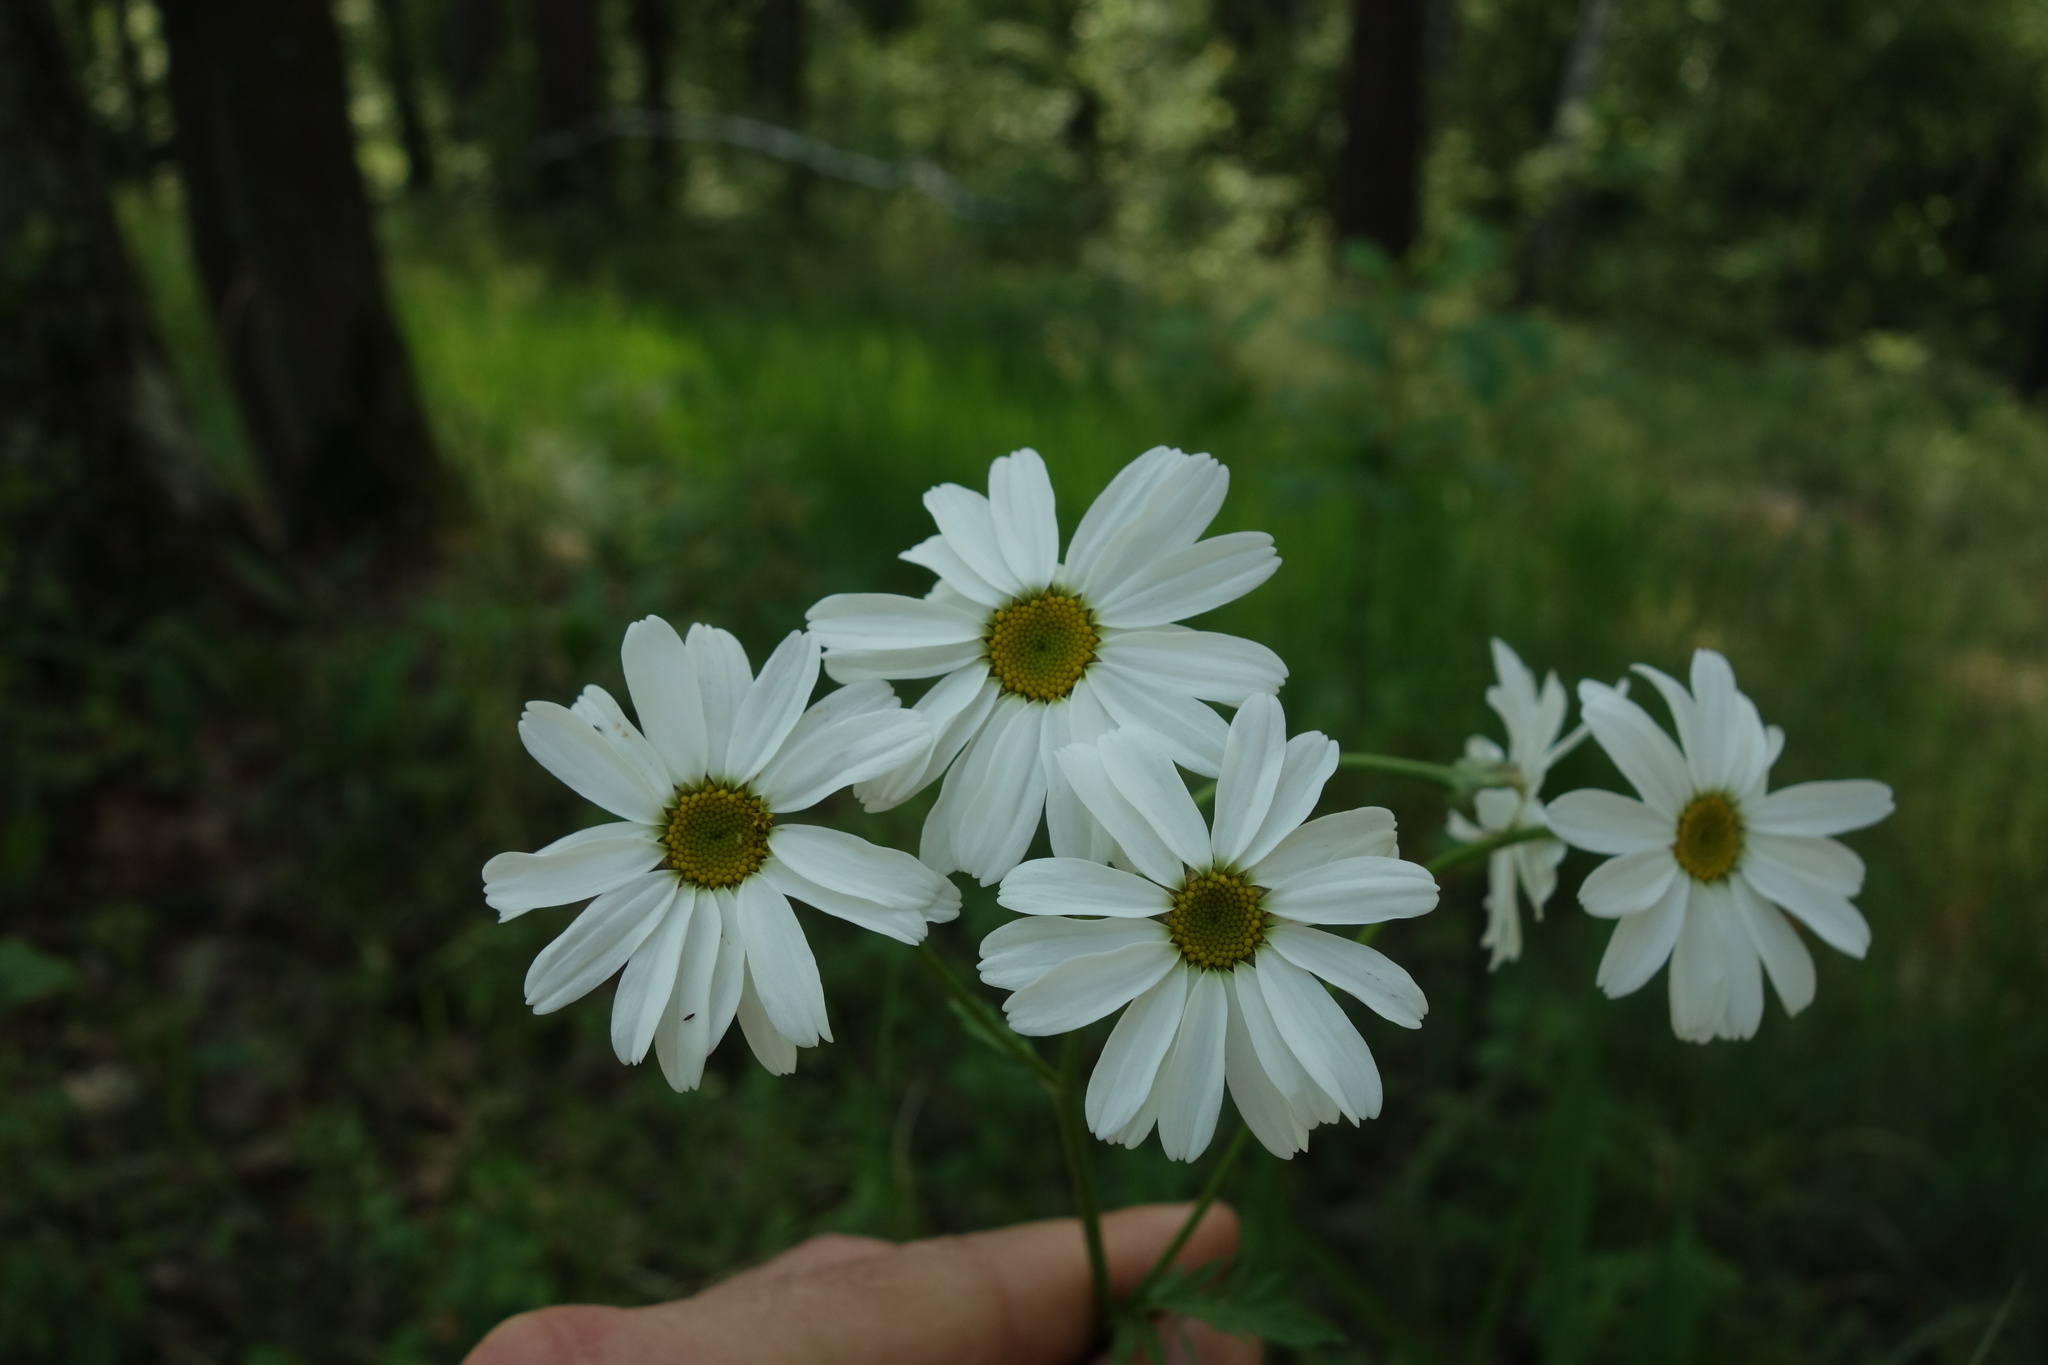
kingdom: Plantae
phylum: Tracheophyta
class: Magnoliopsida
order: Asterales
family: Asteraceae
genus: Tanacetum
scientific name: Tanacetum corymbosum
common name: Scentless feverfew
